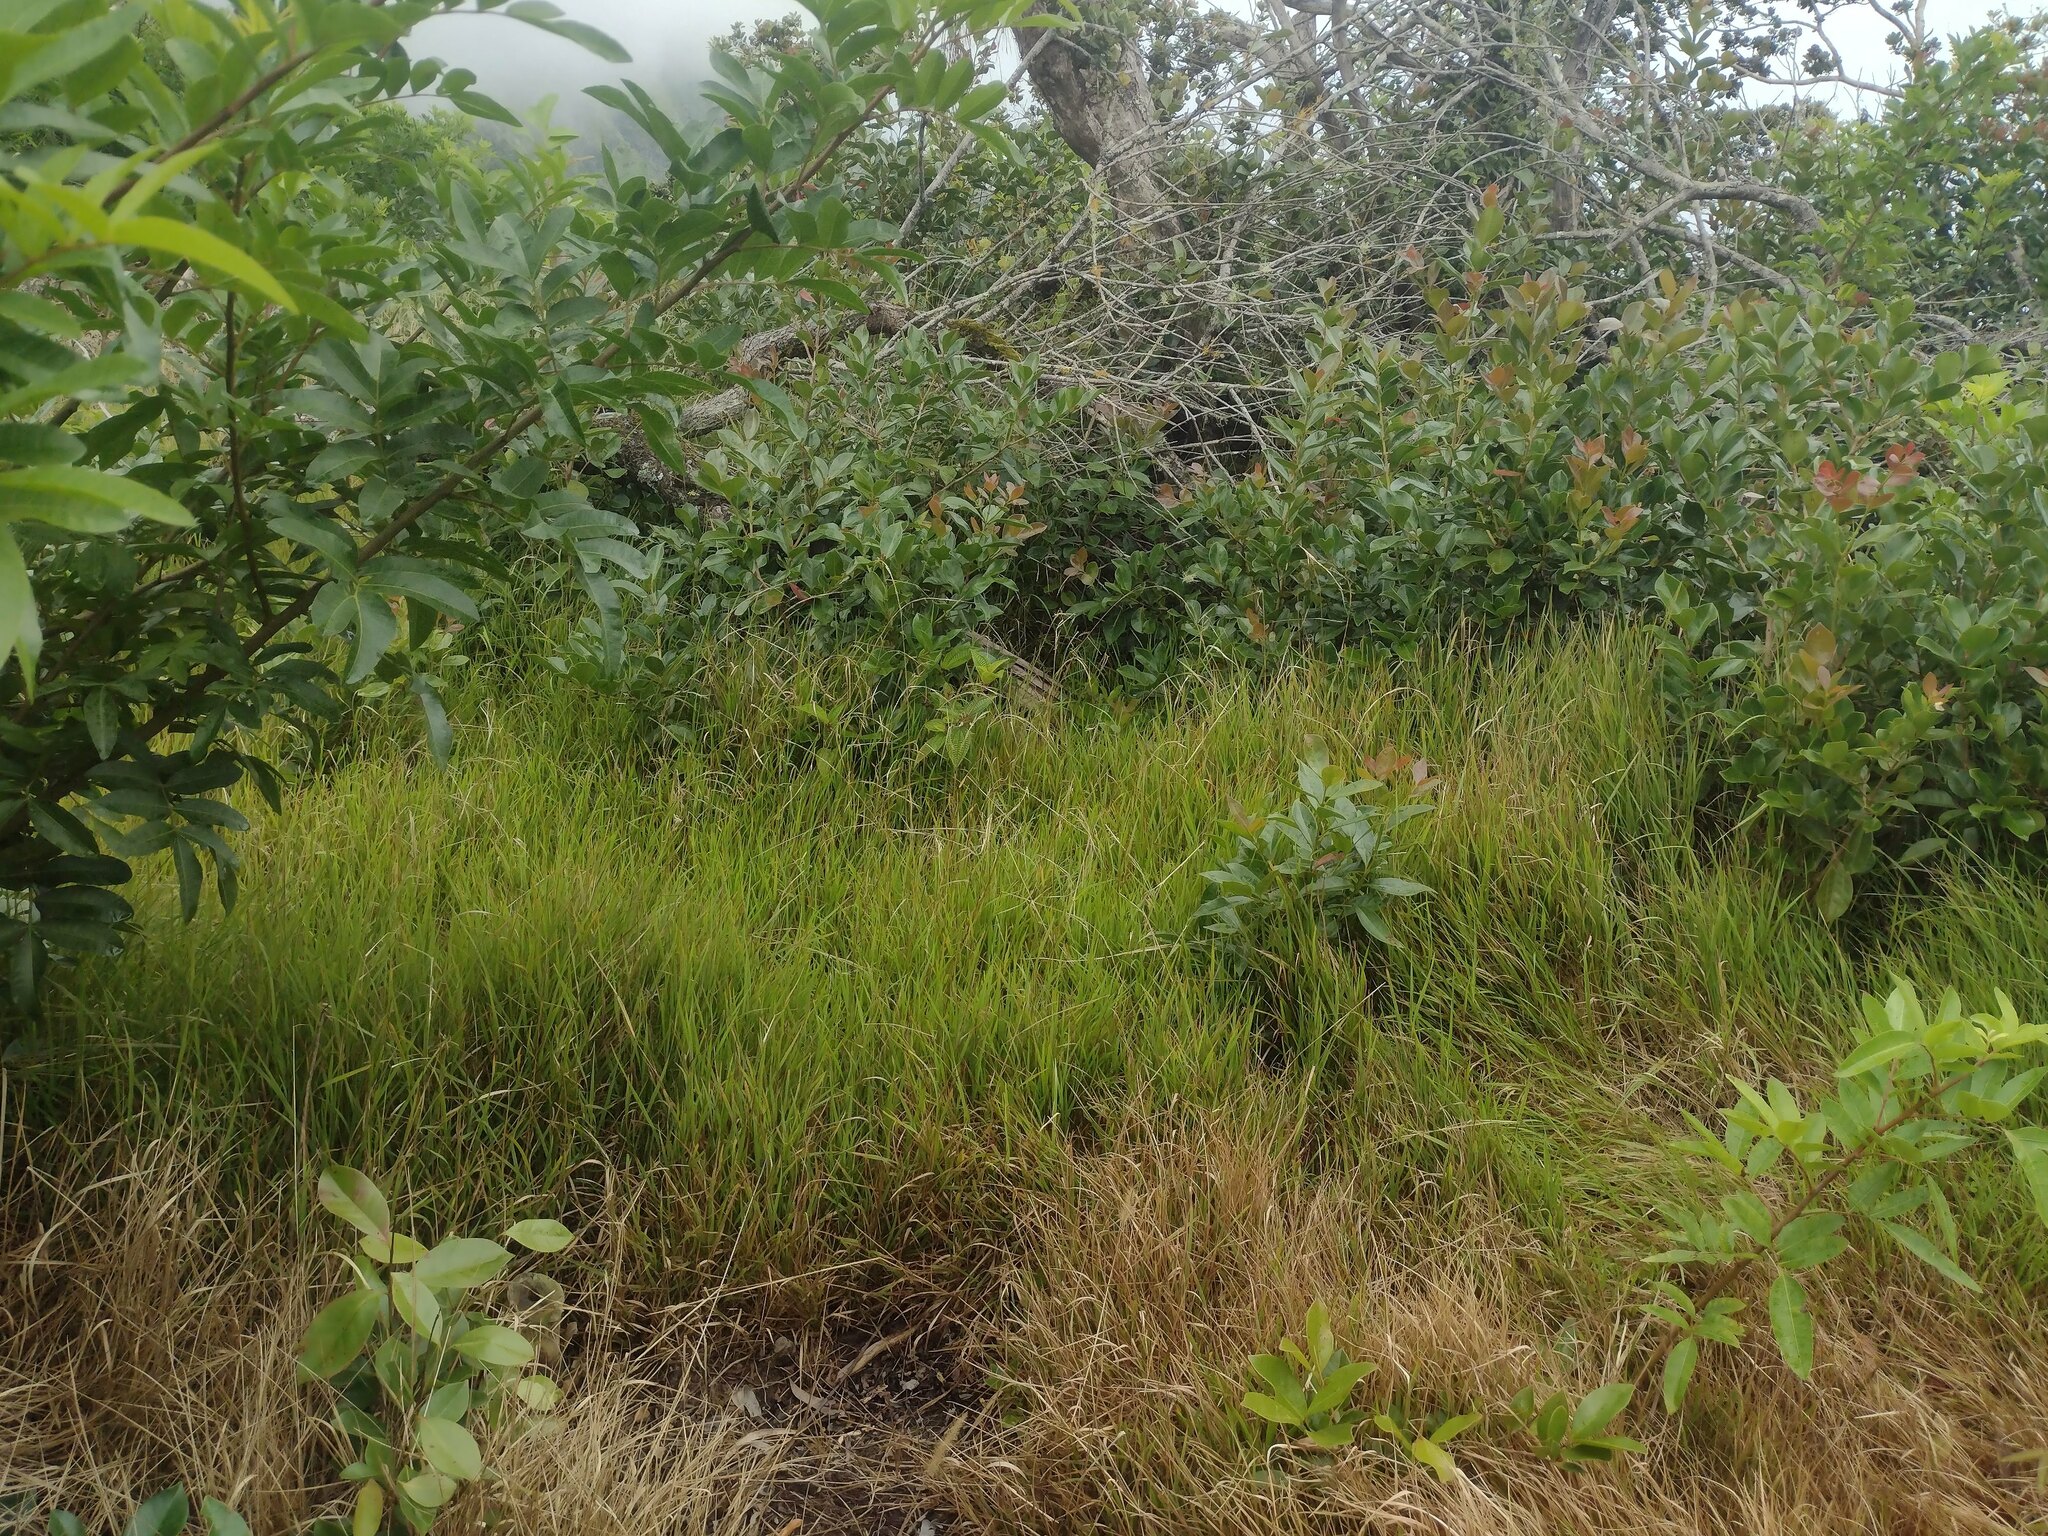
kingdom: Plantae
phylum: Tracheophyta
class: Liliopsida
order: Poales
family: Poaceae
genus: Microlaena
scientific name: Microlaena stipoides
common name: Meadow ricegrass
